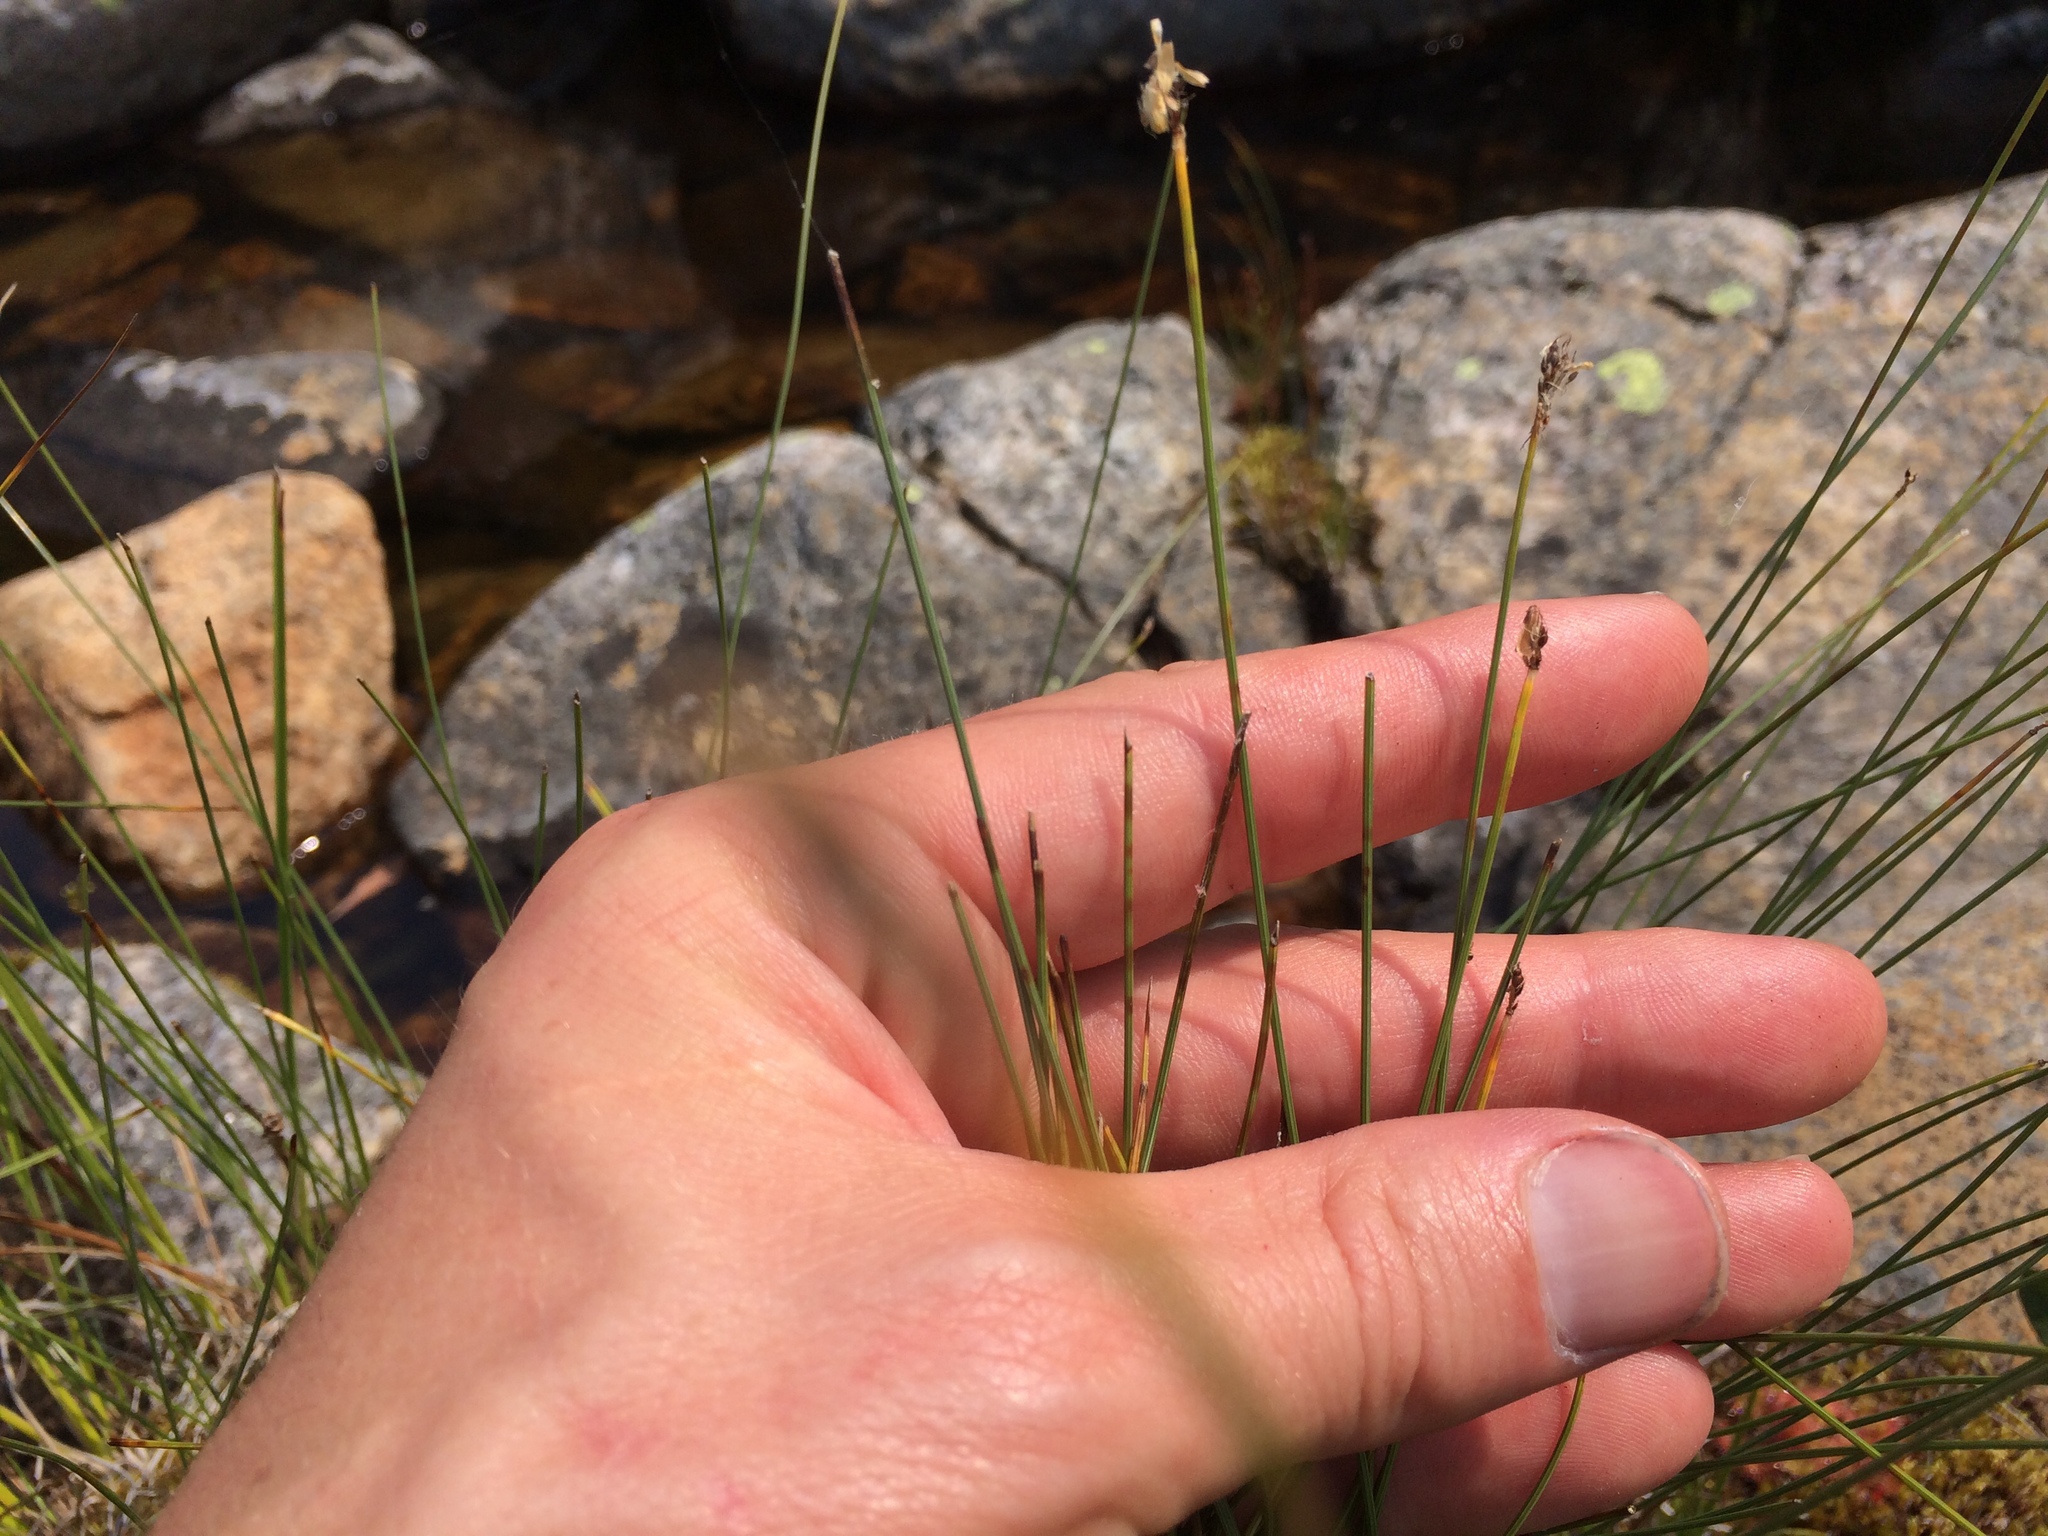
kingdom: Plantae
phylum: Tracheophyta
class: Liliopsida
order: Poales
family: Cyperaceae
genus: Trichophorum
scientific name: Trichophorum cespitosum
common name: Cespitose bulrush
